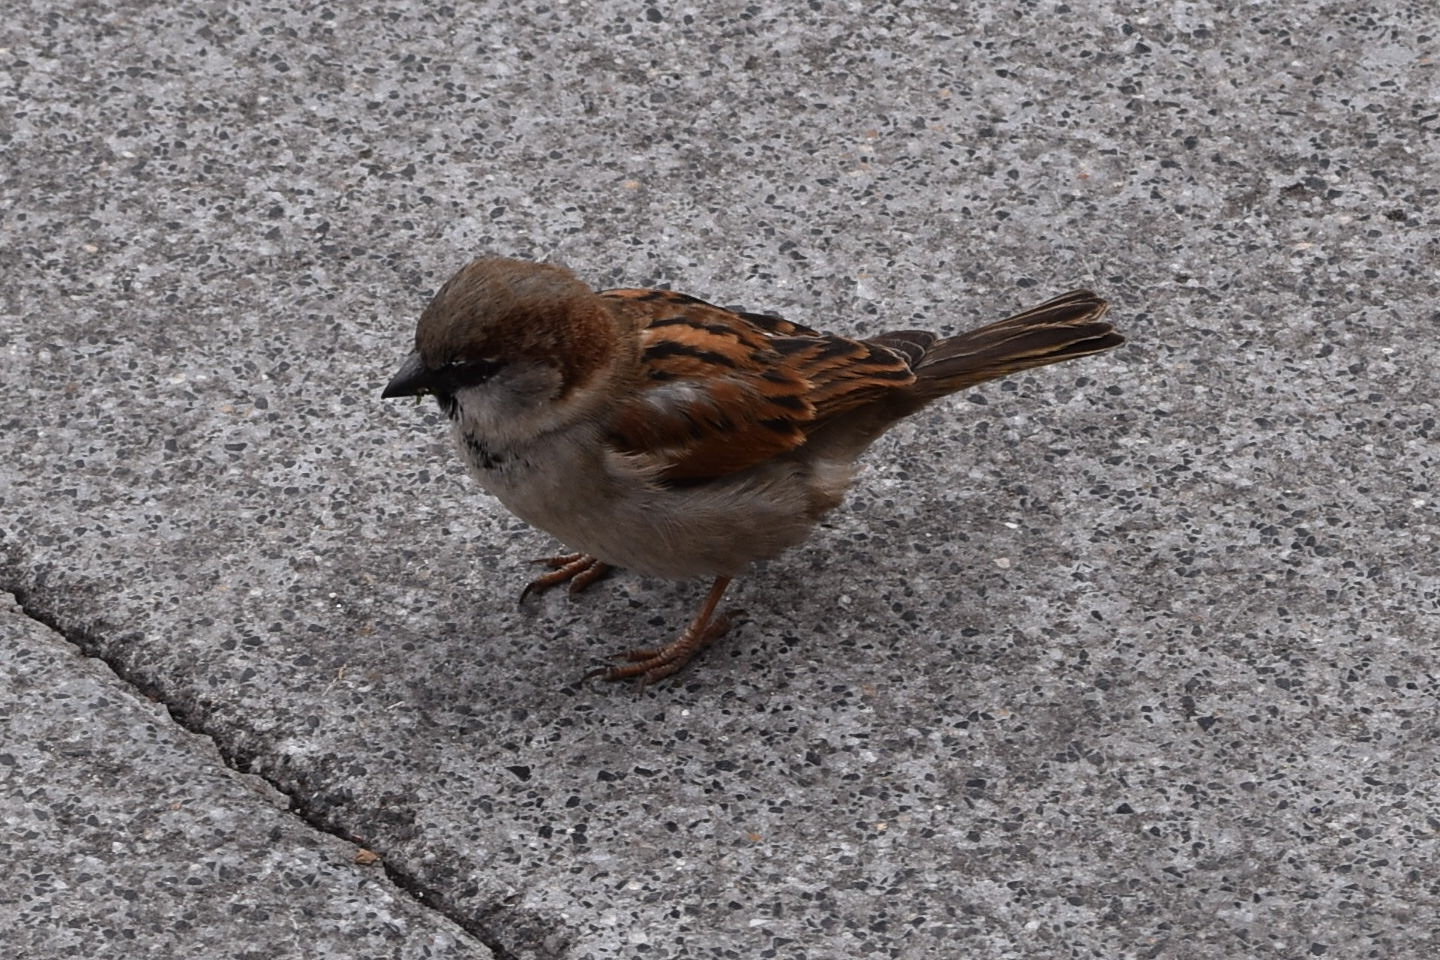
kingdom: Animalia
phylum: Chordata
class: Aves
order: Passeriformes
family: Passeridae
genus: Passer
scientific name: Passer domesticus
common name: House sparrow
